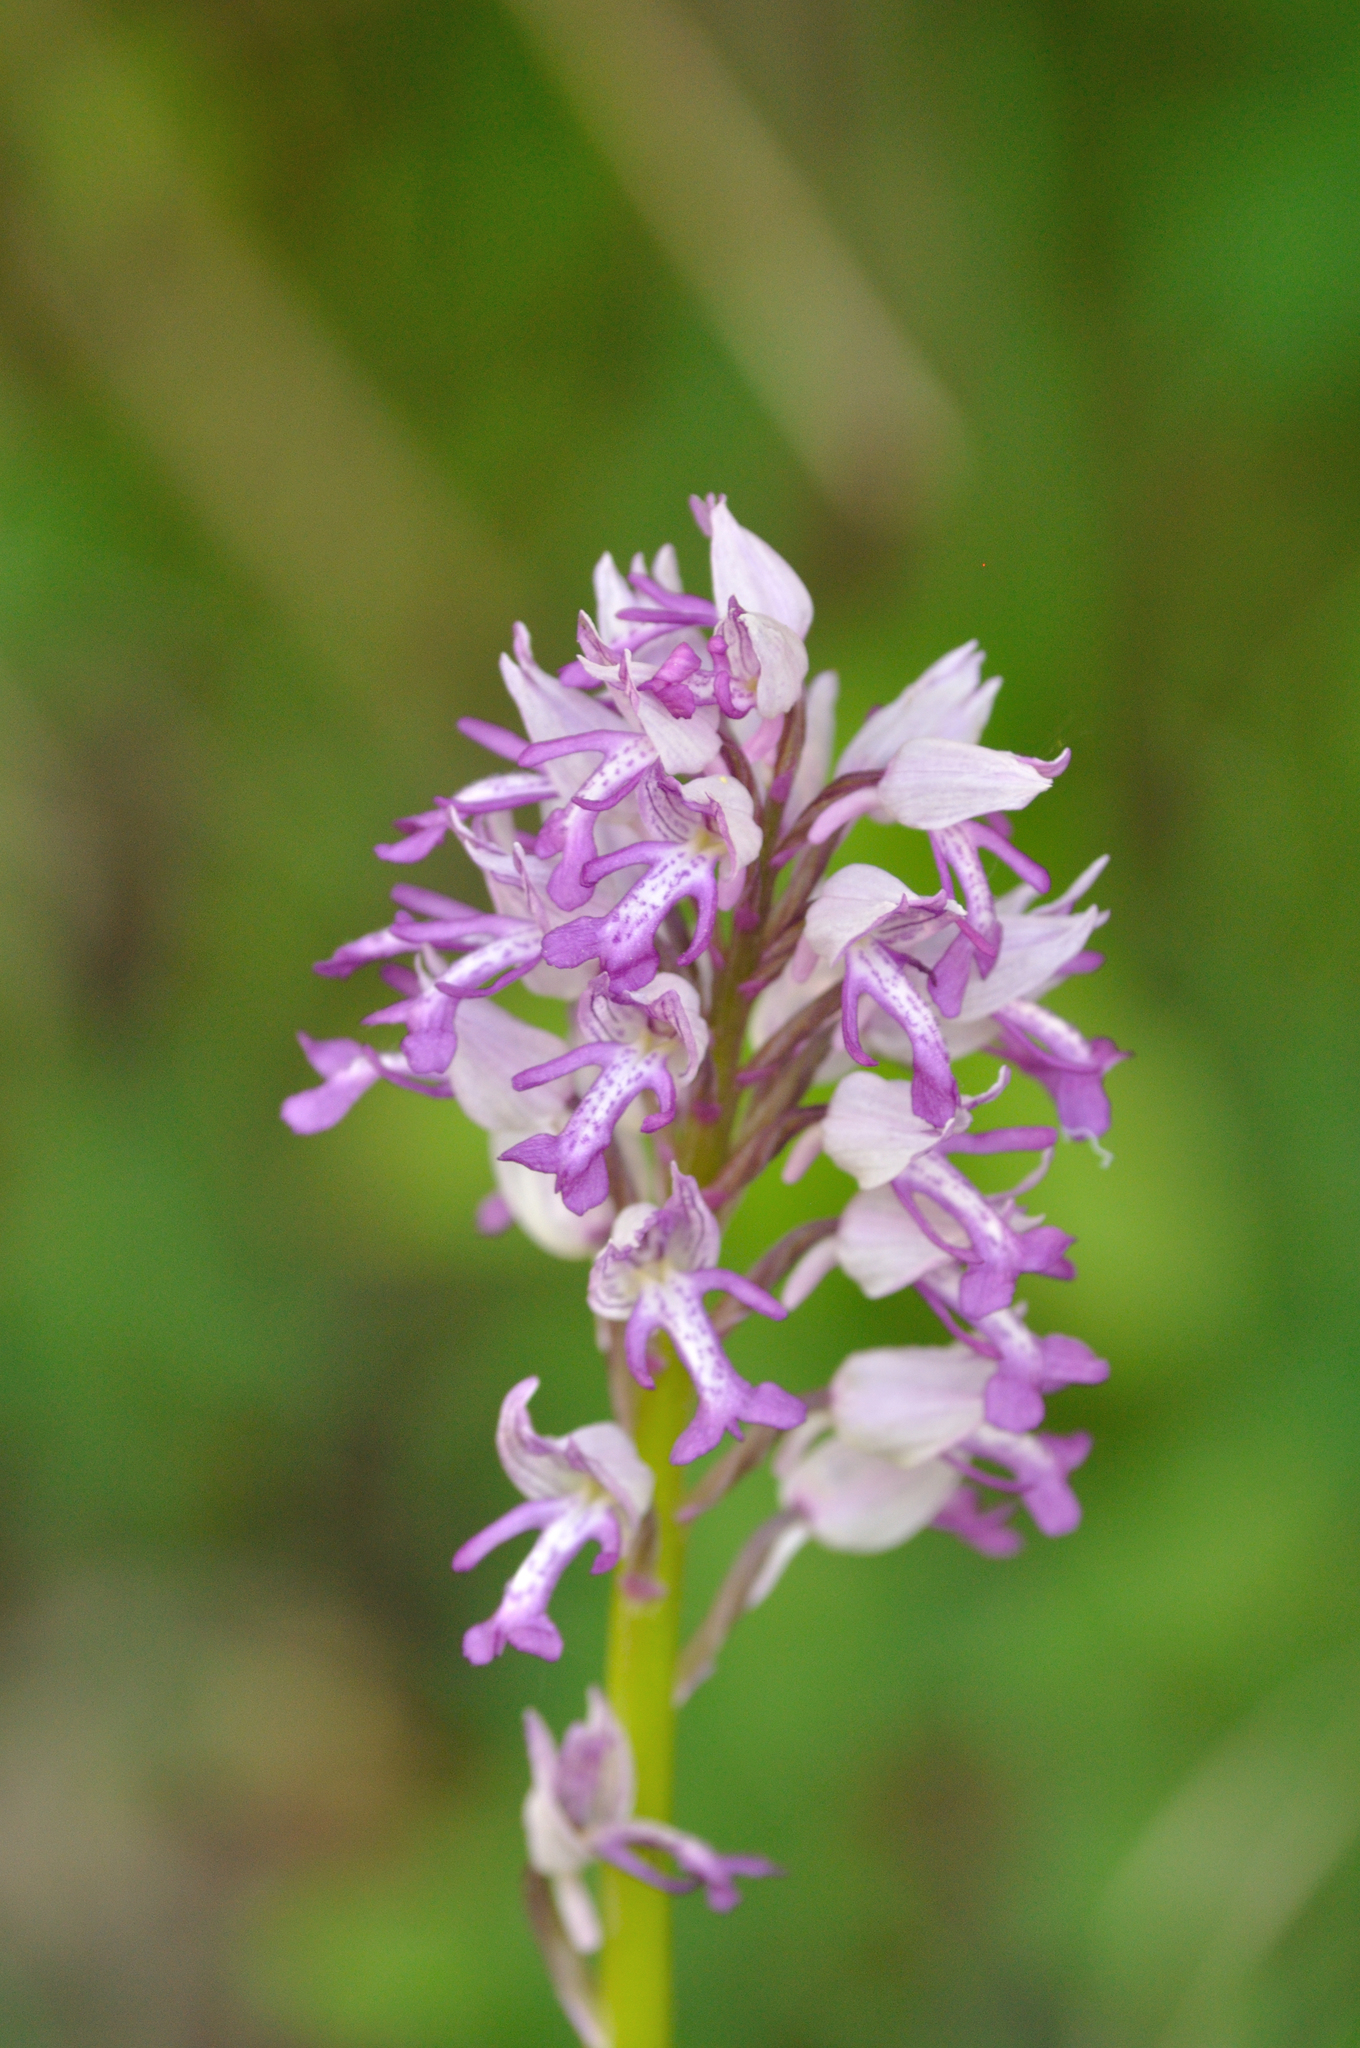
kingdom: Plantae
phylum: Tracheophyta
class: Liliopsida
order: Asparagales
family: Orchidaceae
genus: Orchis
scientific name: Orchis militaris
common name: Military orchid
